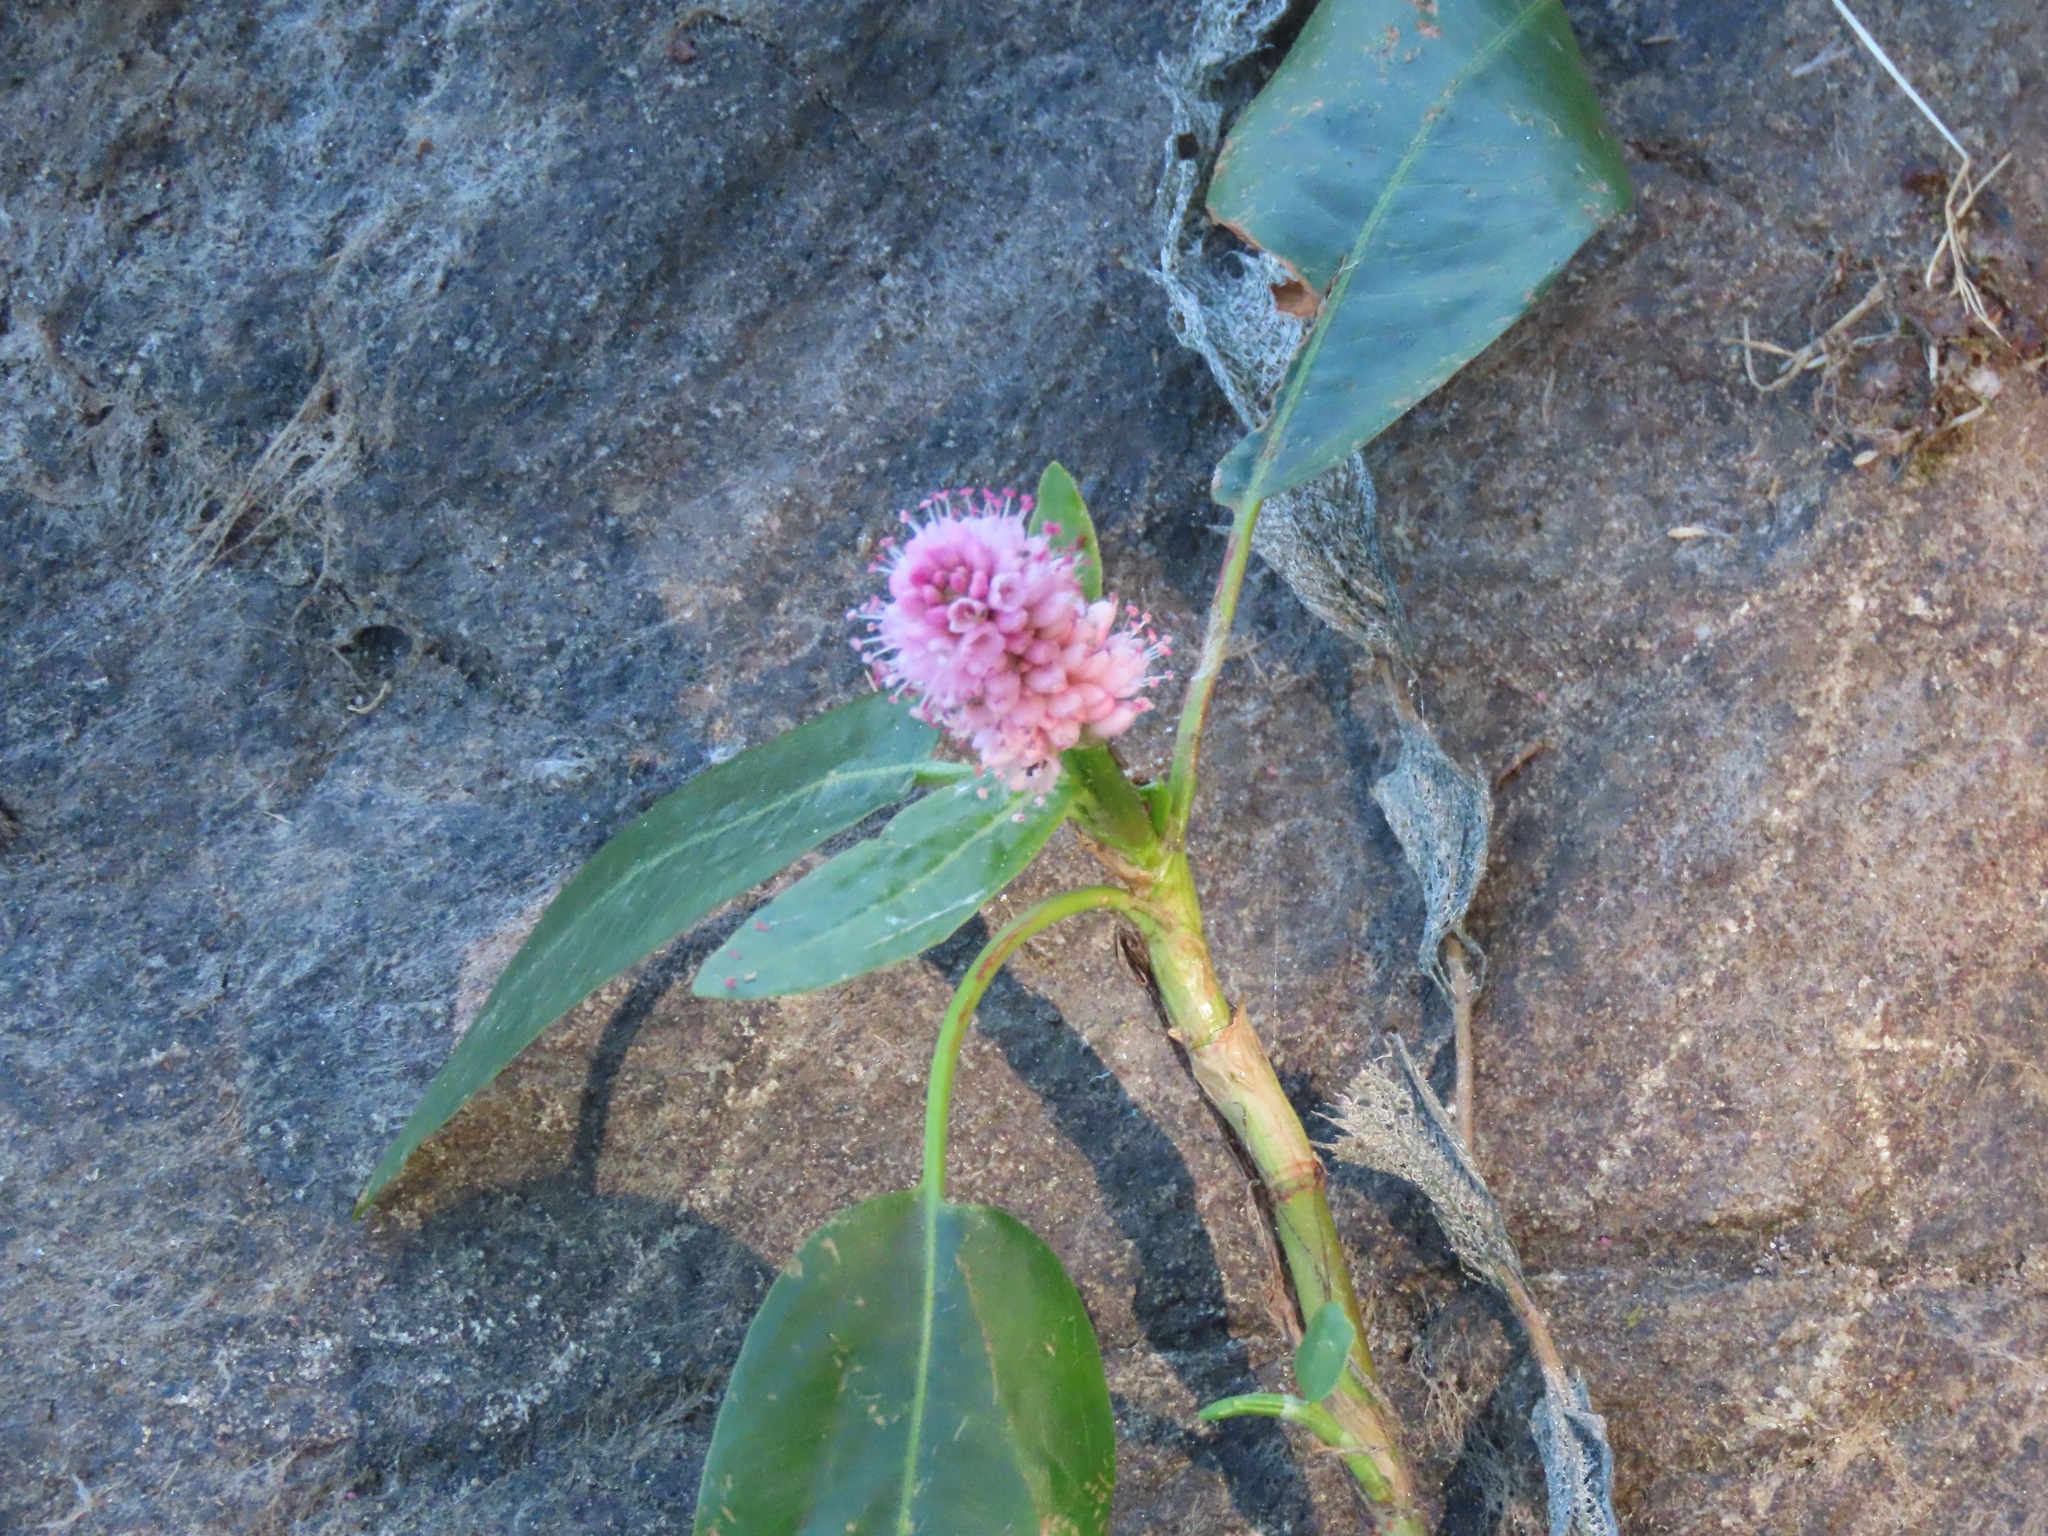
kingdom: Plantae
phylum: Tracheophyta
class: Magnoliopsida
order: Caryophyllales
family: Polygonaceae
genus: Persicaria
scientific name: Persicaria amphibia
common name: Amphibious bistort
